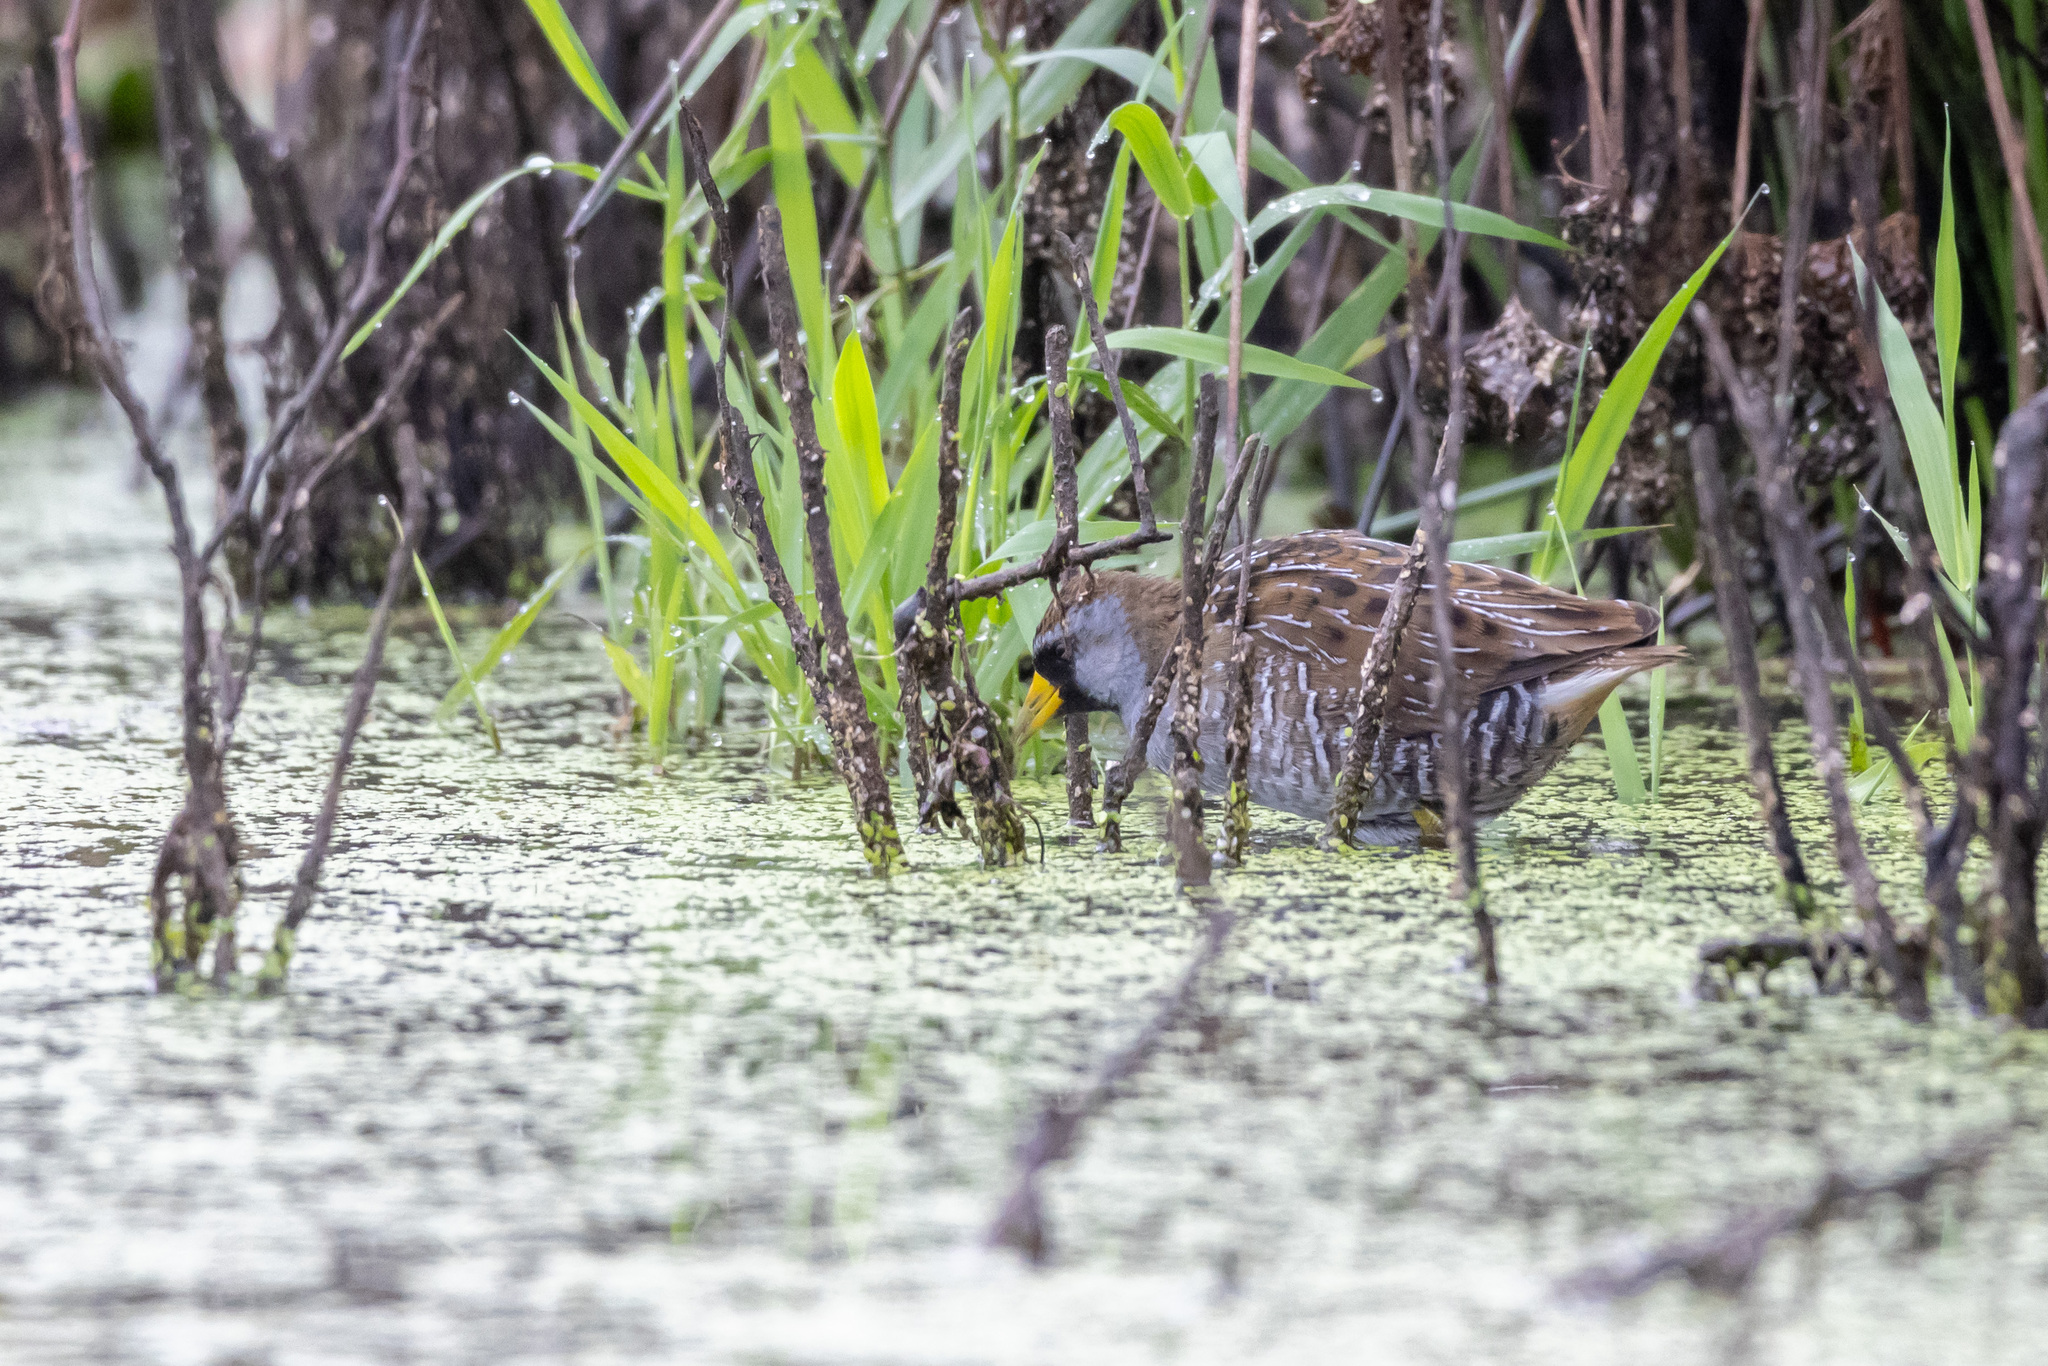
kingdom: Animalia
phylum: Chordata
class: Aves
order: Gruiformes
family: Rallidae
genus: Porzana
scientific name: Porzana carolina
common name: Sora
